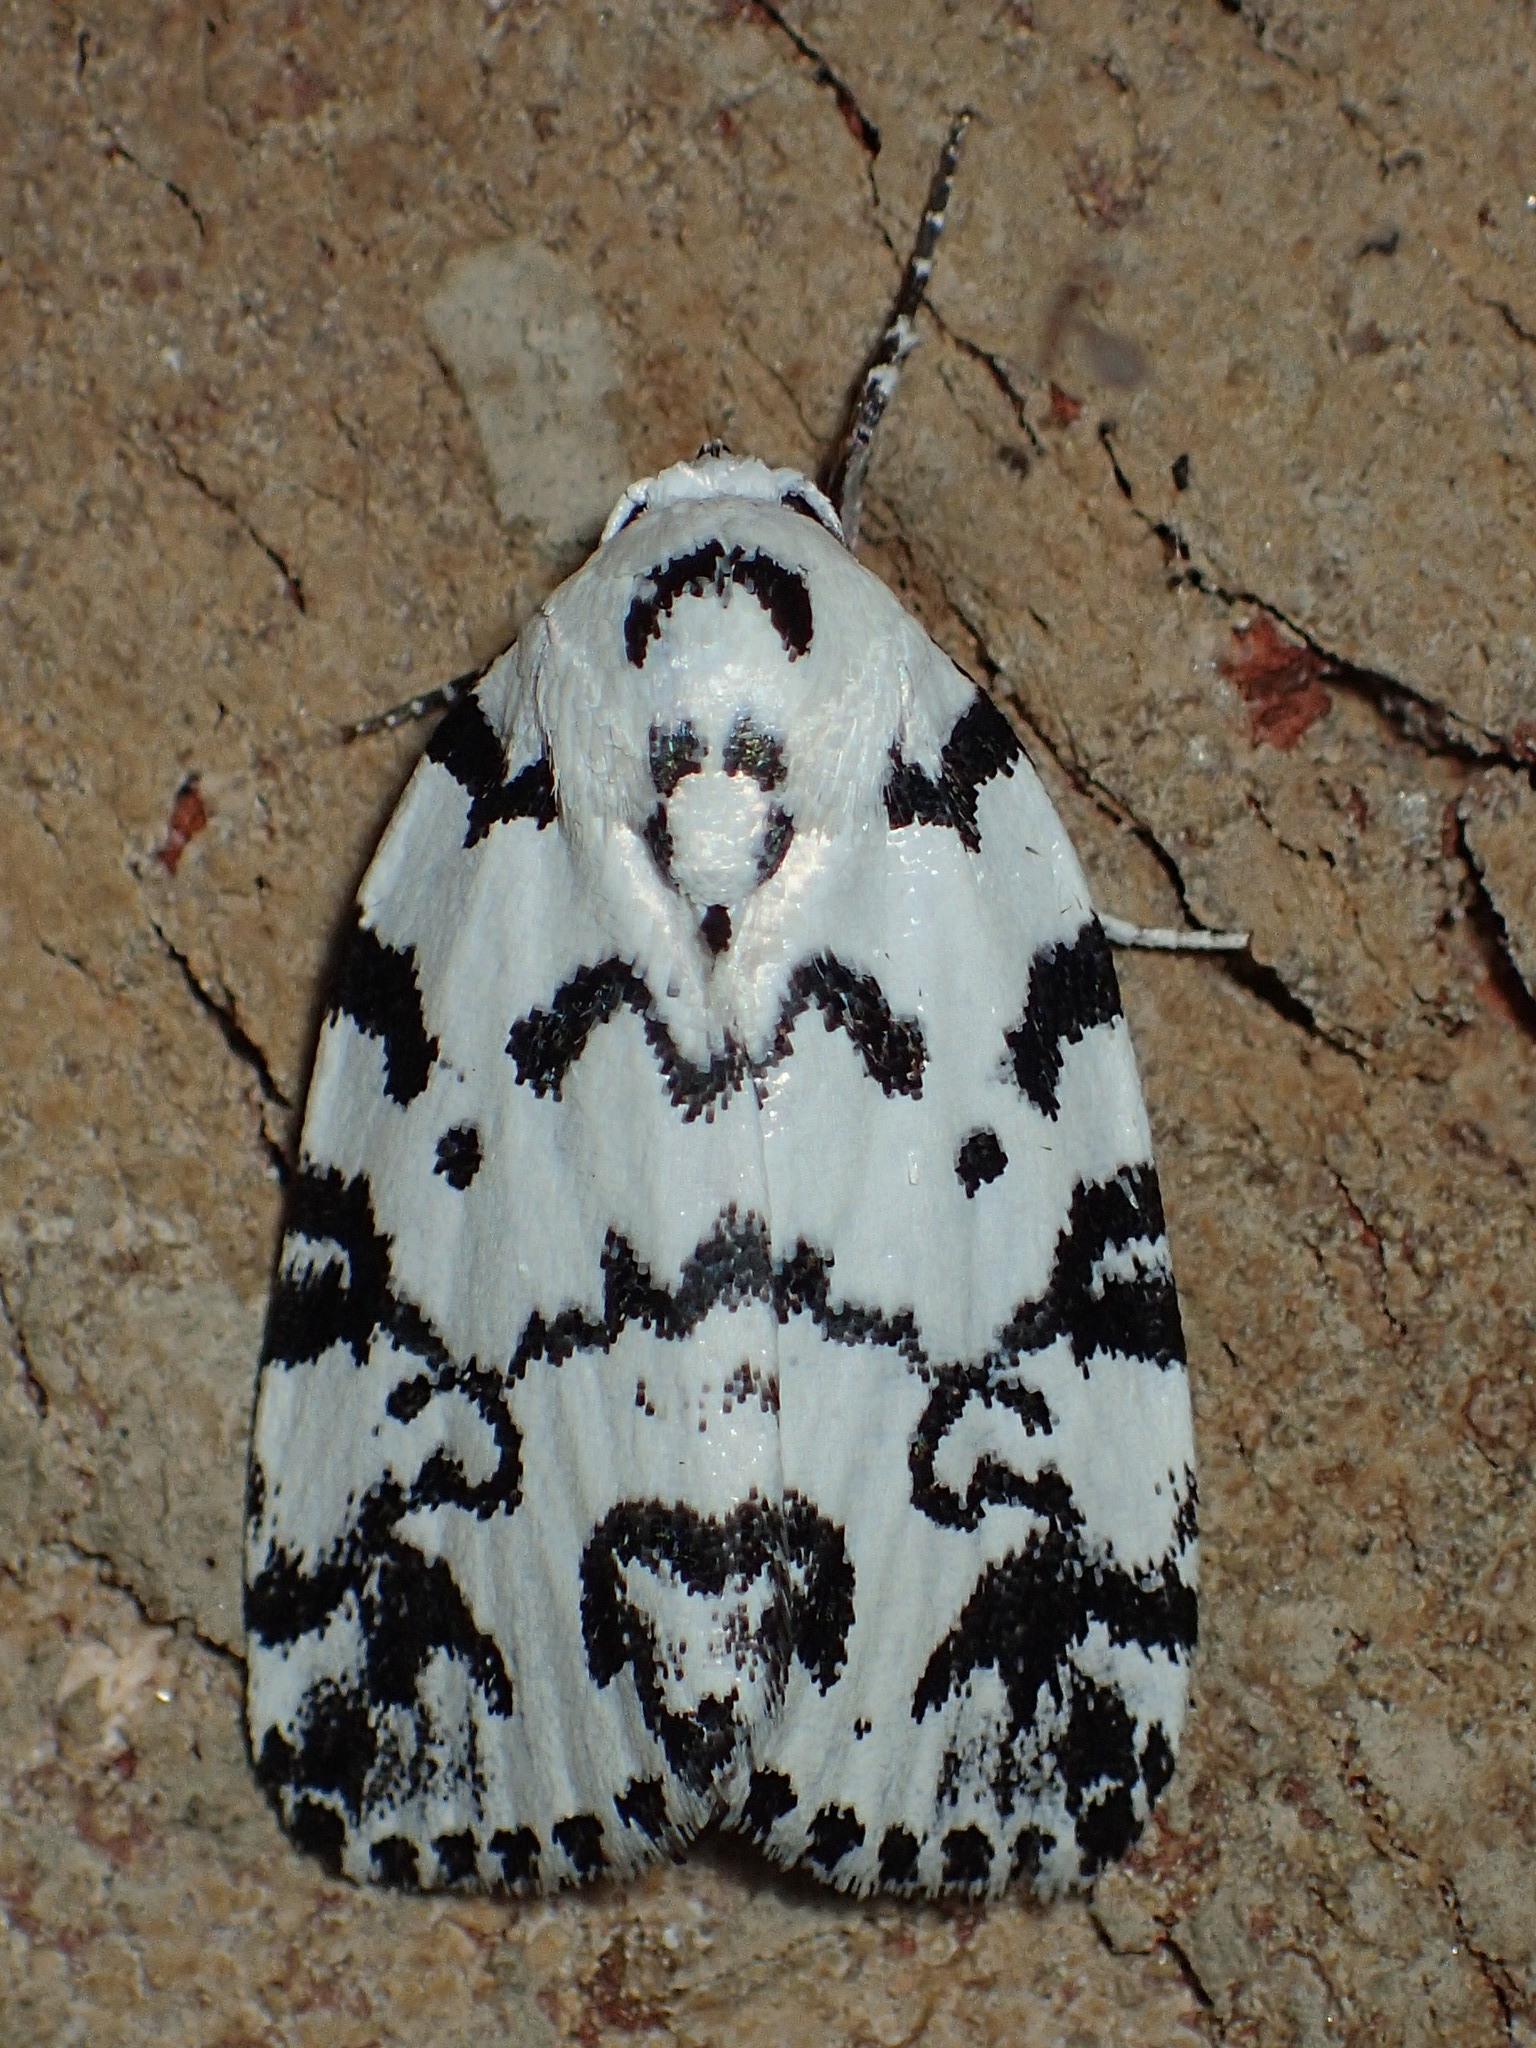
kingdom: Animalia
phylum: Arthropoda
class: Insecta
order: Lepidoptera
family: Noctuidae
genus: Polygrammate
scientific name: Polygrammate hebraeicum
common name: Hebrew moth
